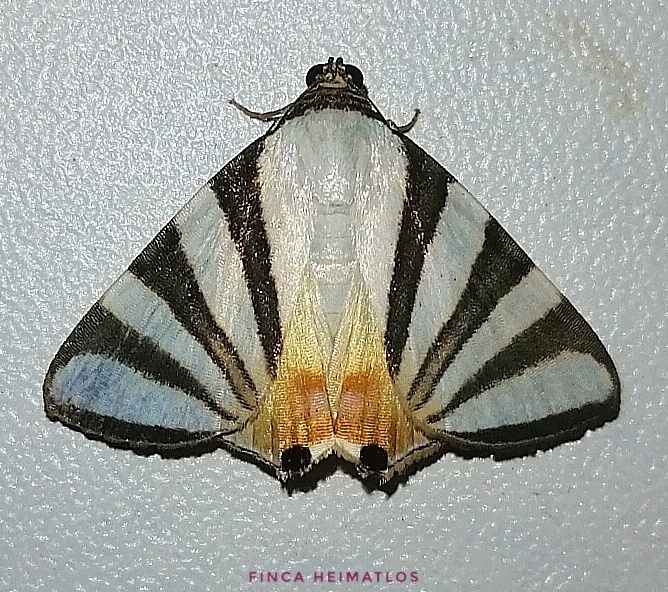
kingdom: Animalia
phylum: Arthropoda
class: Insecta
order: Lepidoptera
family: Erebidae
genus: Eulepidotis
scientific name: Eulepidotis preclara
